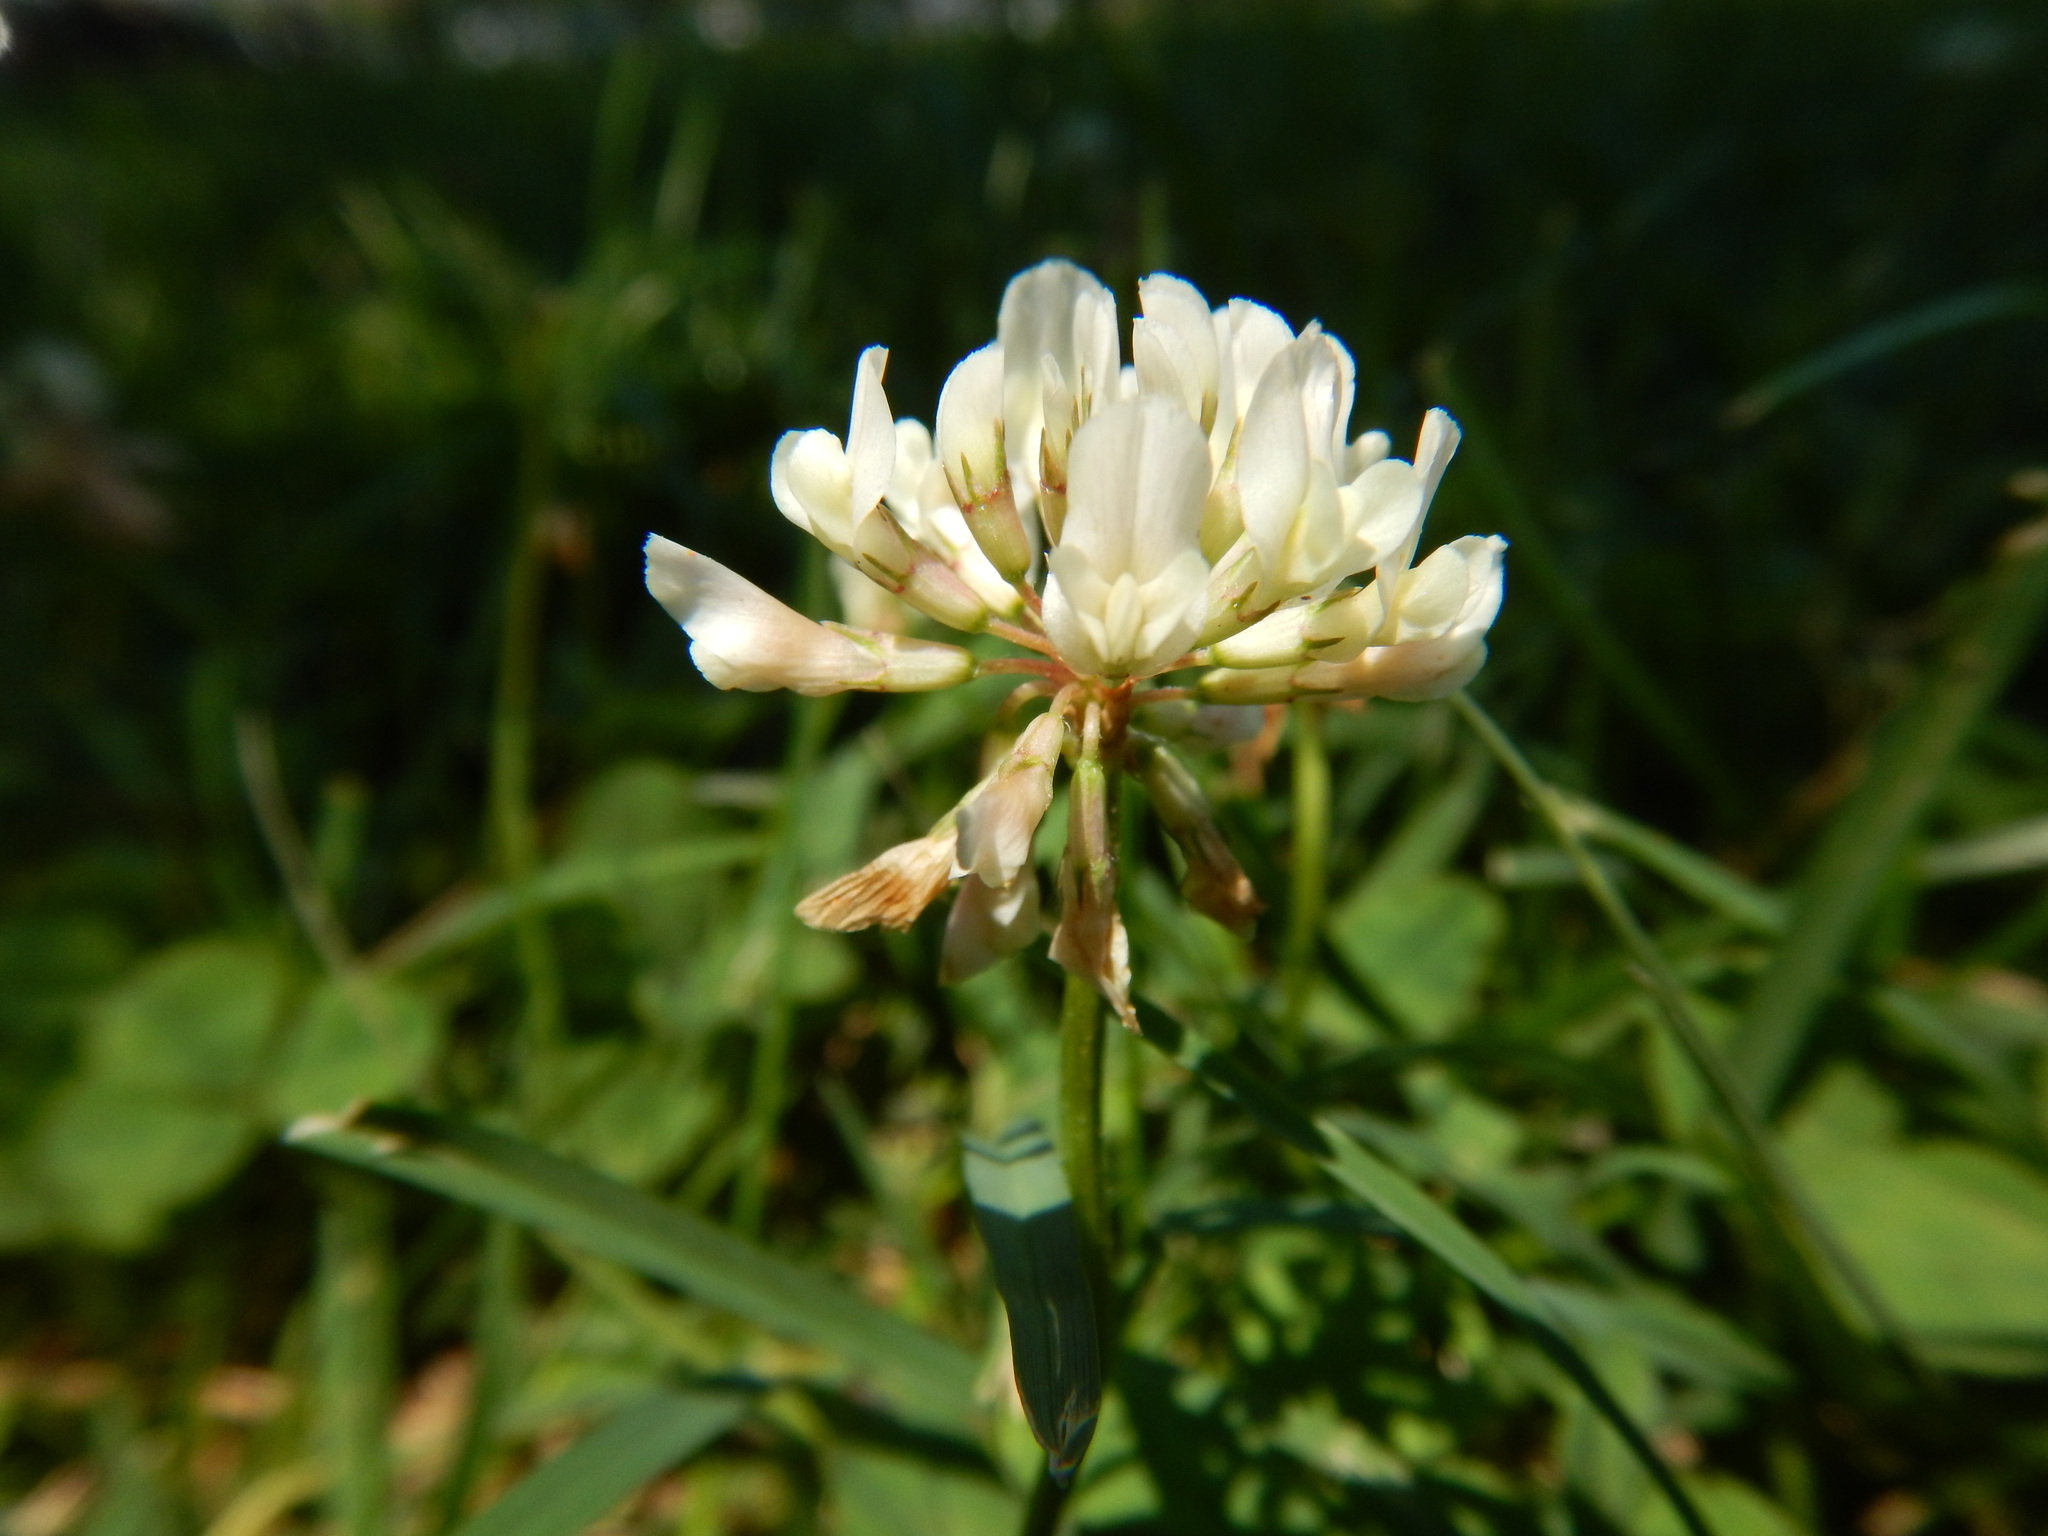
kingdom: Plantae
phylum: Tracheophyta
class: Magnoliopsida
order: Fabales
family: Fabaceae
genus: Trifolium
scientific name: Trifolium repens
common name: White clover
